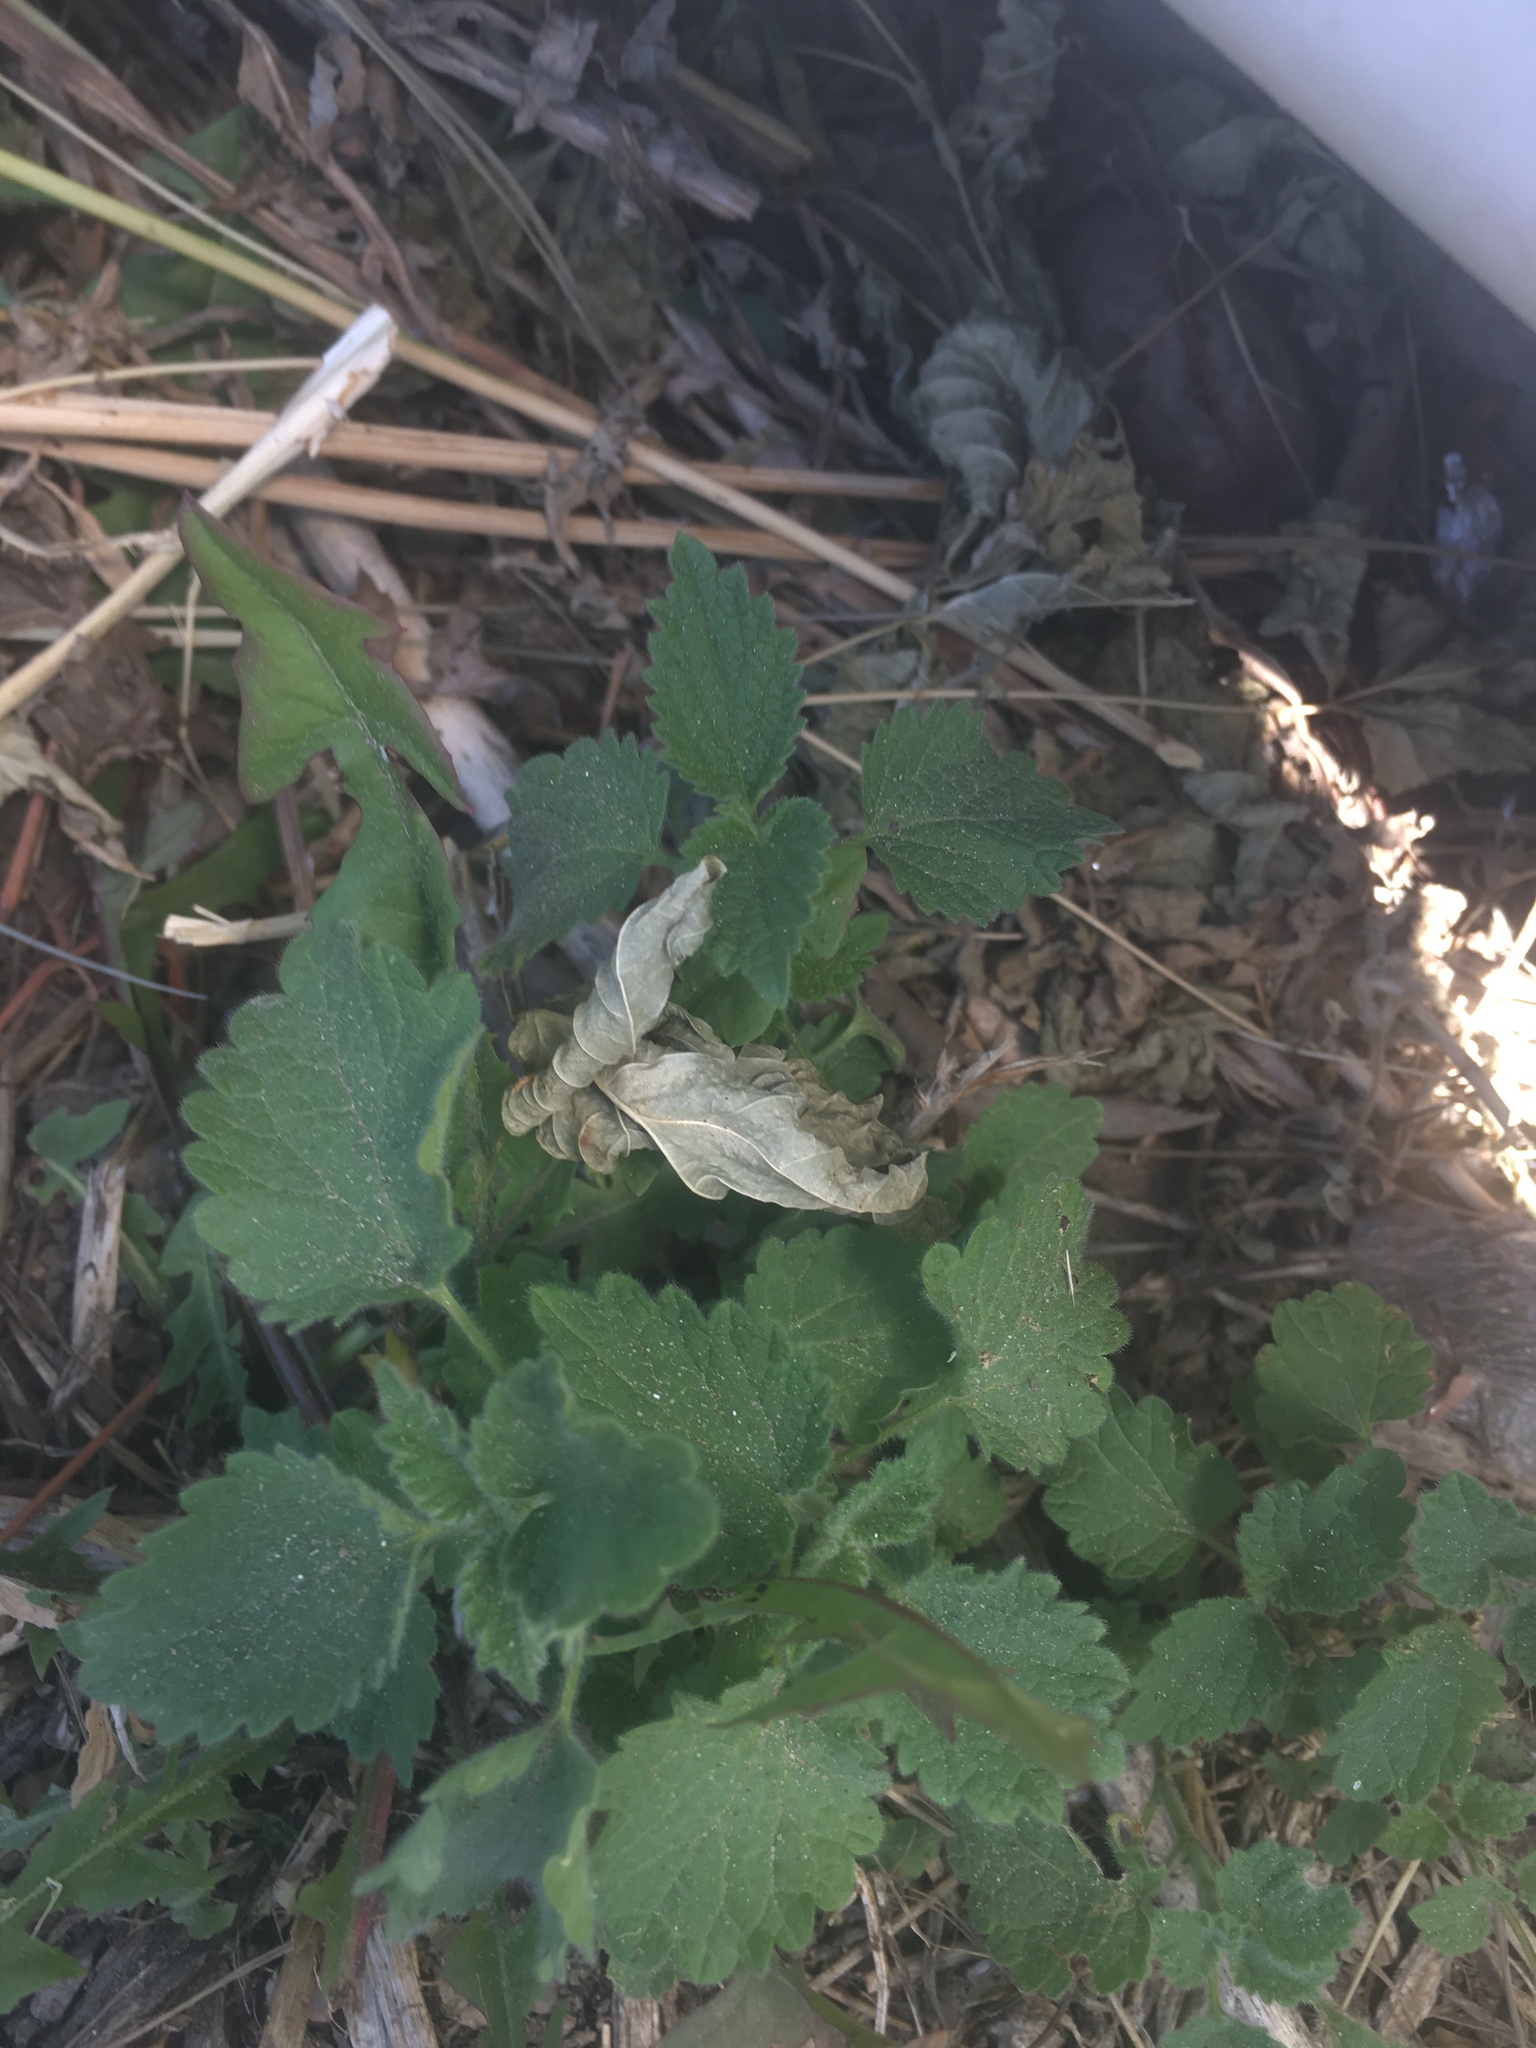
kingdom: Plantae
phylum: Tracheophyta
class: Magnoliopsida
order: Lamiales
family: Lamiaceae
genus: Ballota
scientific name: Ballota nigra
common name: Black horehound
